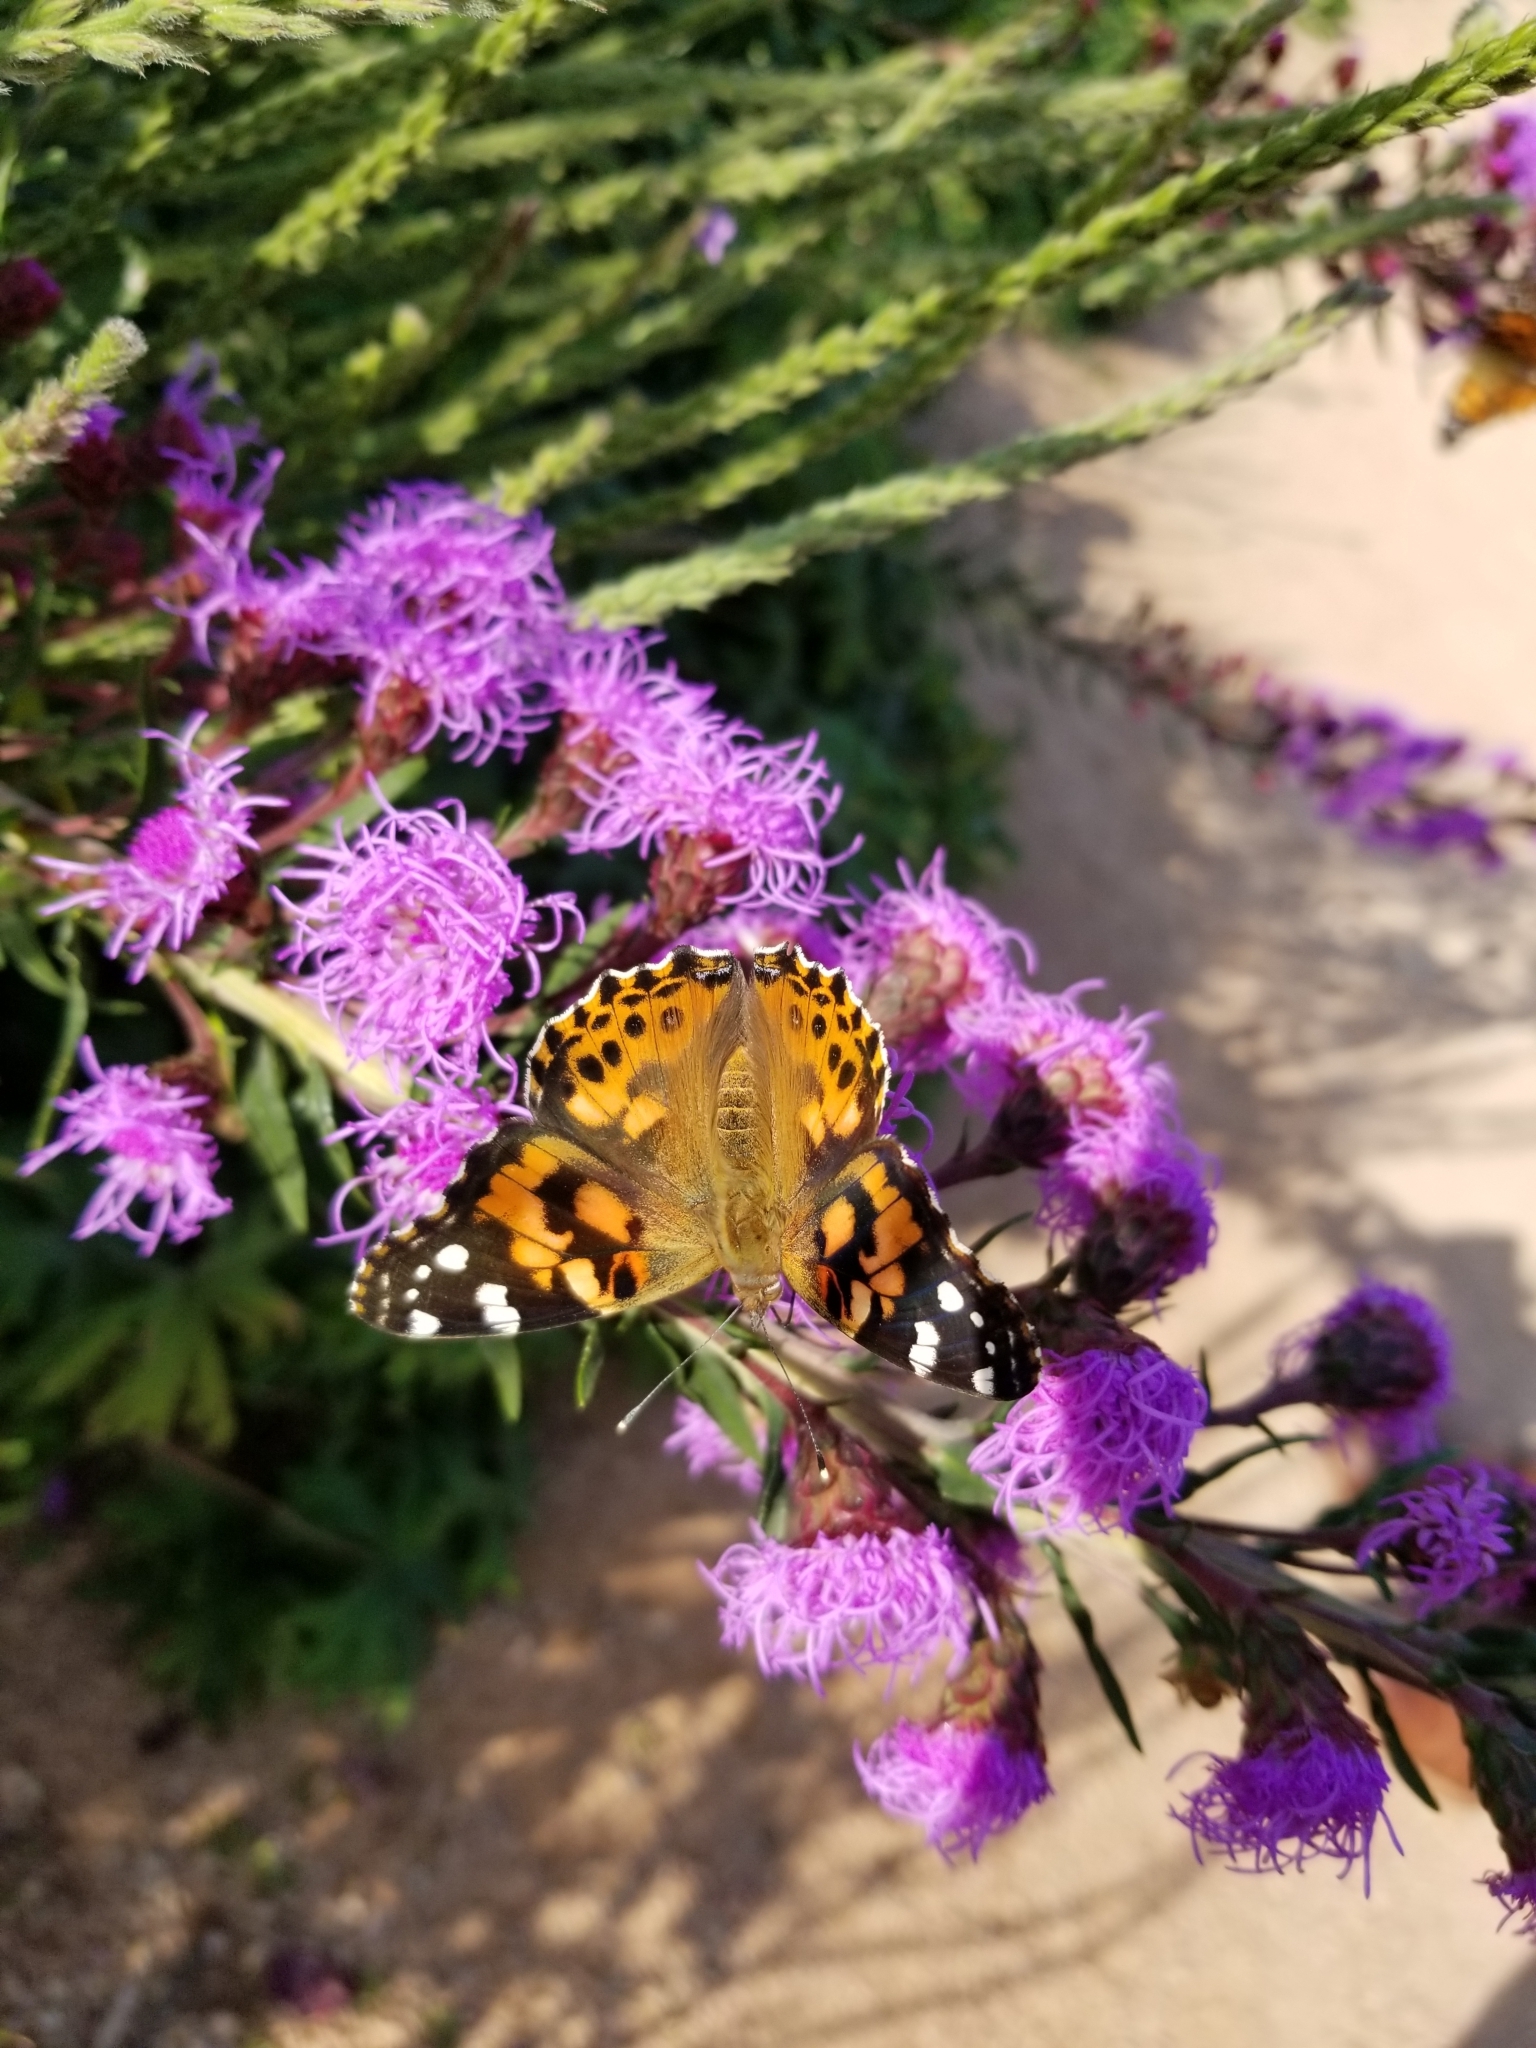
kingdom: Animalia
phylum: Arthropoda
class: Insecta
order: Lepidoptera
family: Nymphalidae
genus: Vanessa
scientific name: Vanessa cardui
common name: Painted lady
